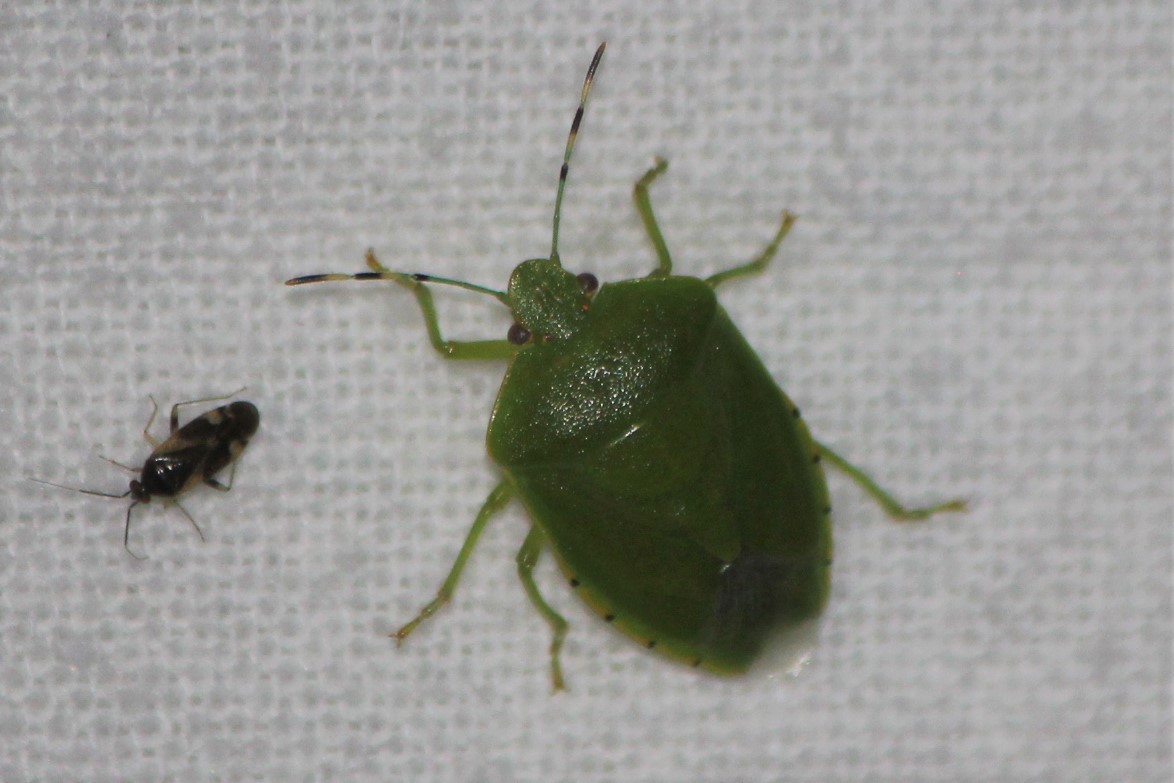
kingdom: Animalia
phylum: Arthropoda
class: Insecta
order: Hemiptera
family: Pentatomidae
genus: Chinavia
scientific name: Chinavia hilaris
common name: Green stink bug
